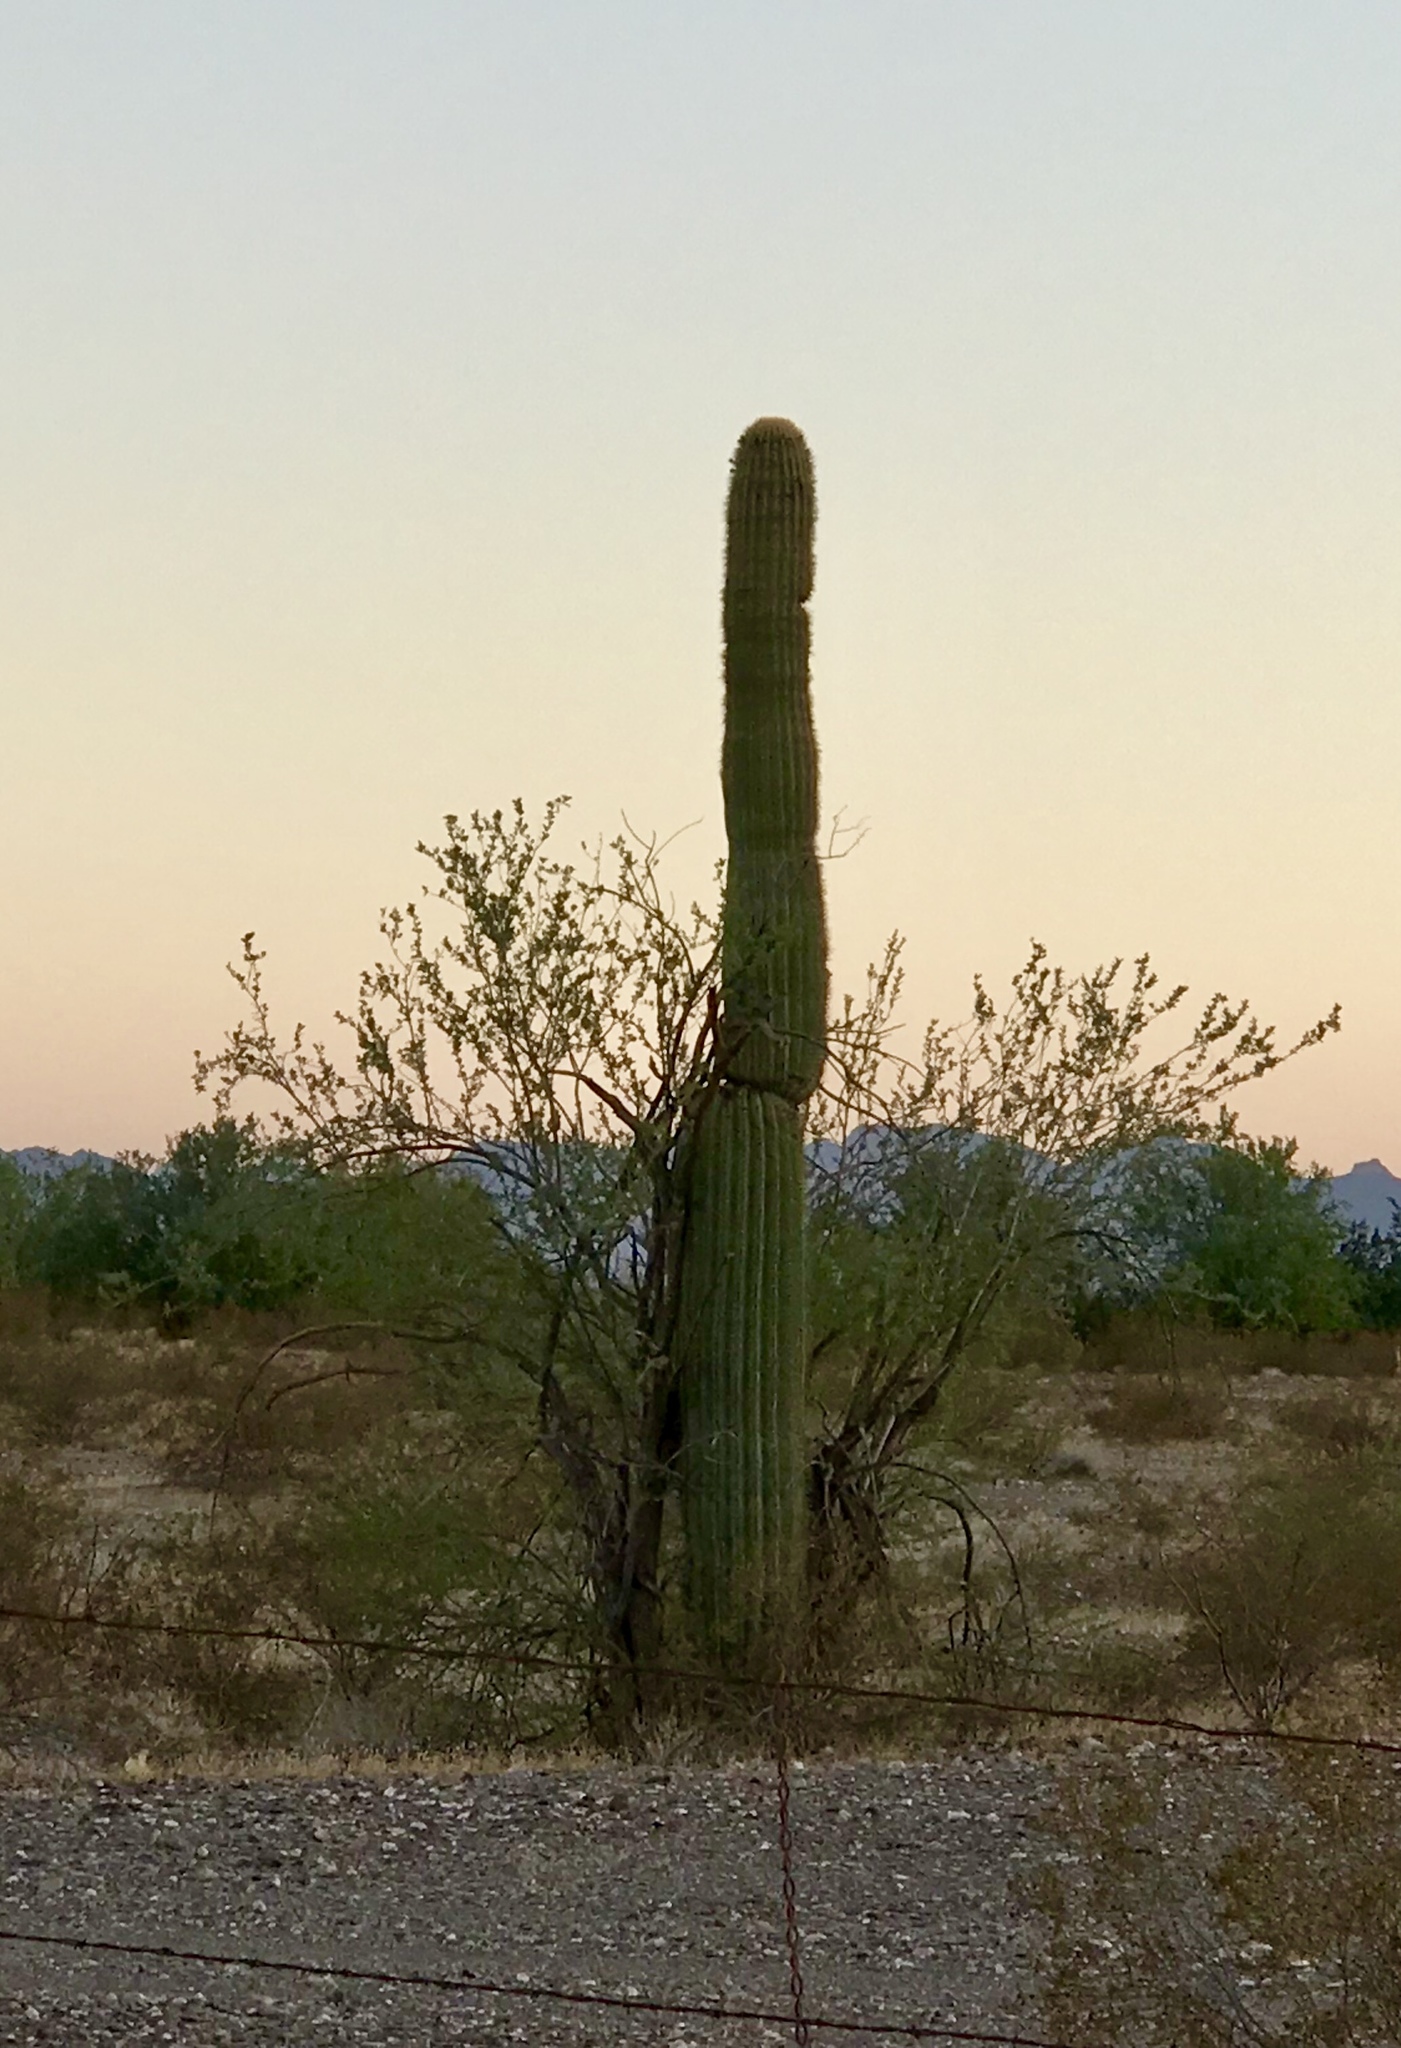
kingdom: Plantae
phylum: Tracheophyta
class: Magnoliopsida
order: Caryophyllales
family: Cactaceae
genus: Carnegiea
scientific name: Carnegiea gigantea
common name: Saguaro
